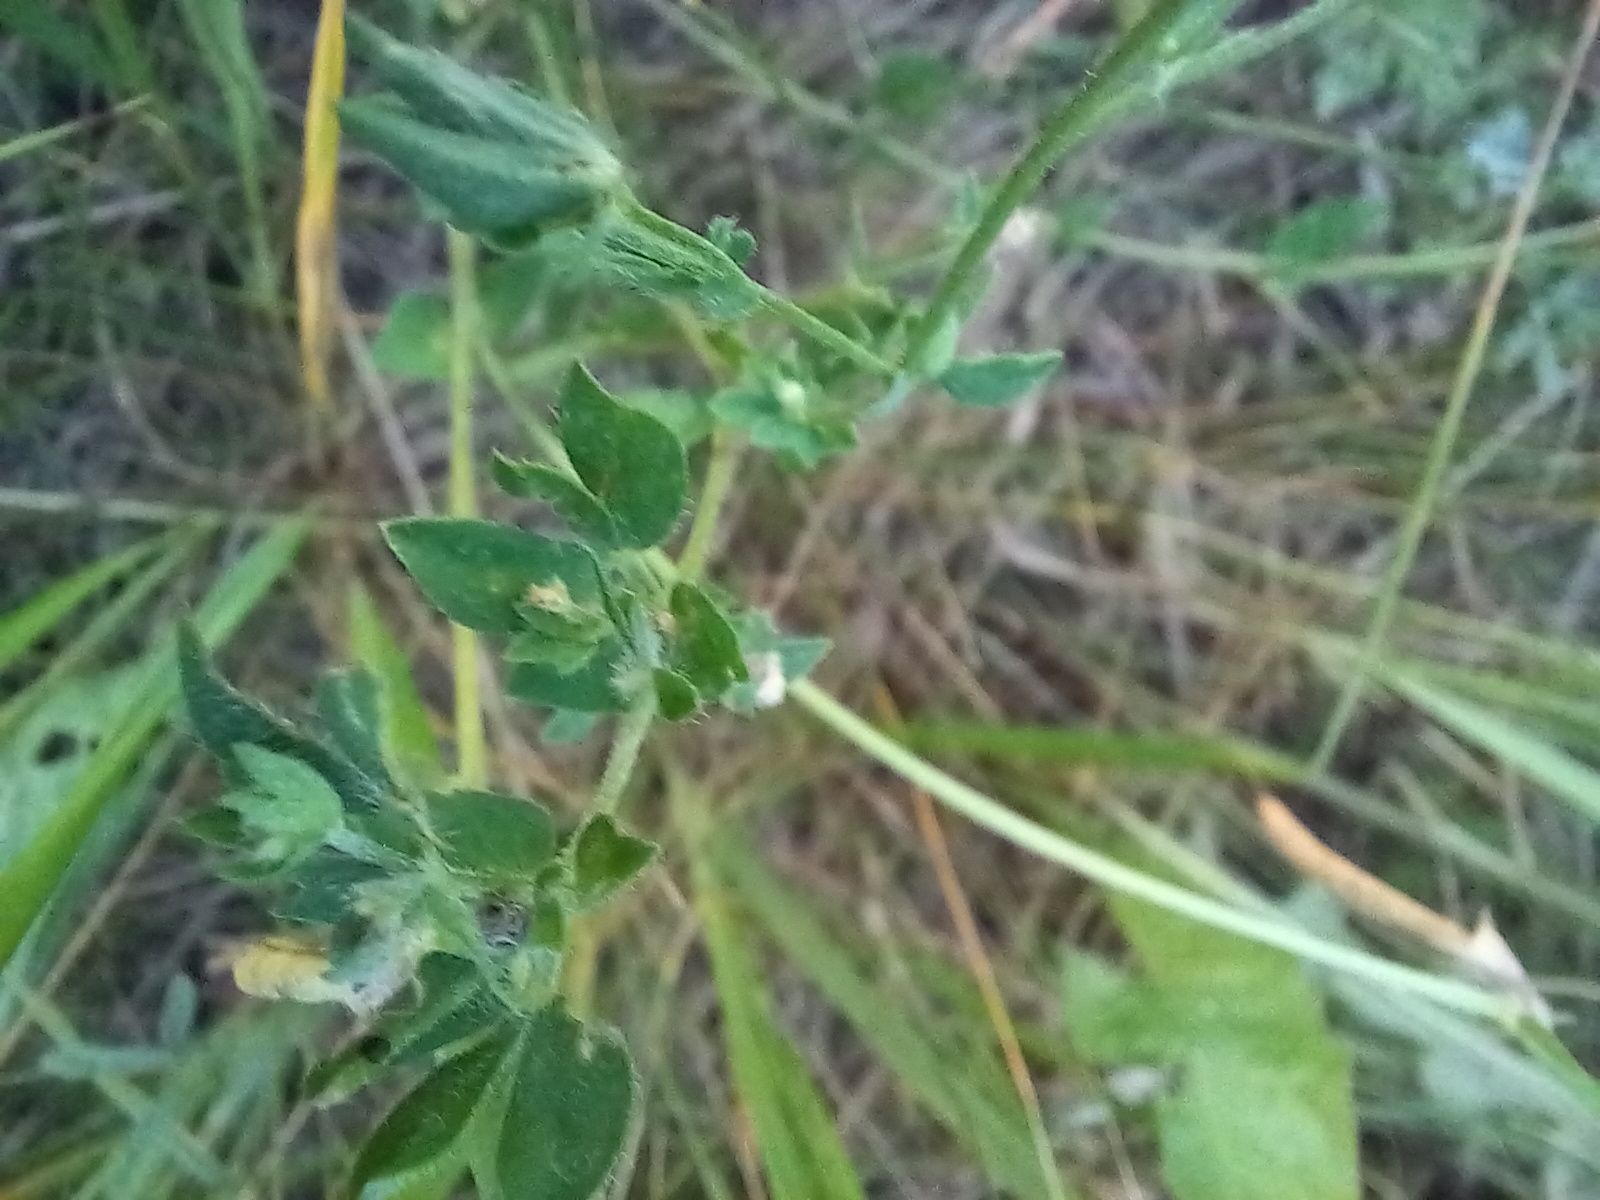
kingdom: Plantae
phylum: Tracheophyta
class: Magnoliopsida
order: Fabales
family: Fabaceae
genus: Lotus
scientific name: Lotus corniculatus
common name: Common bird's-foot-trefoil
